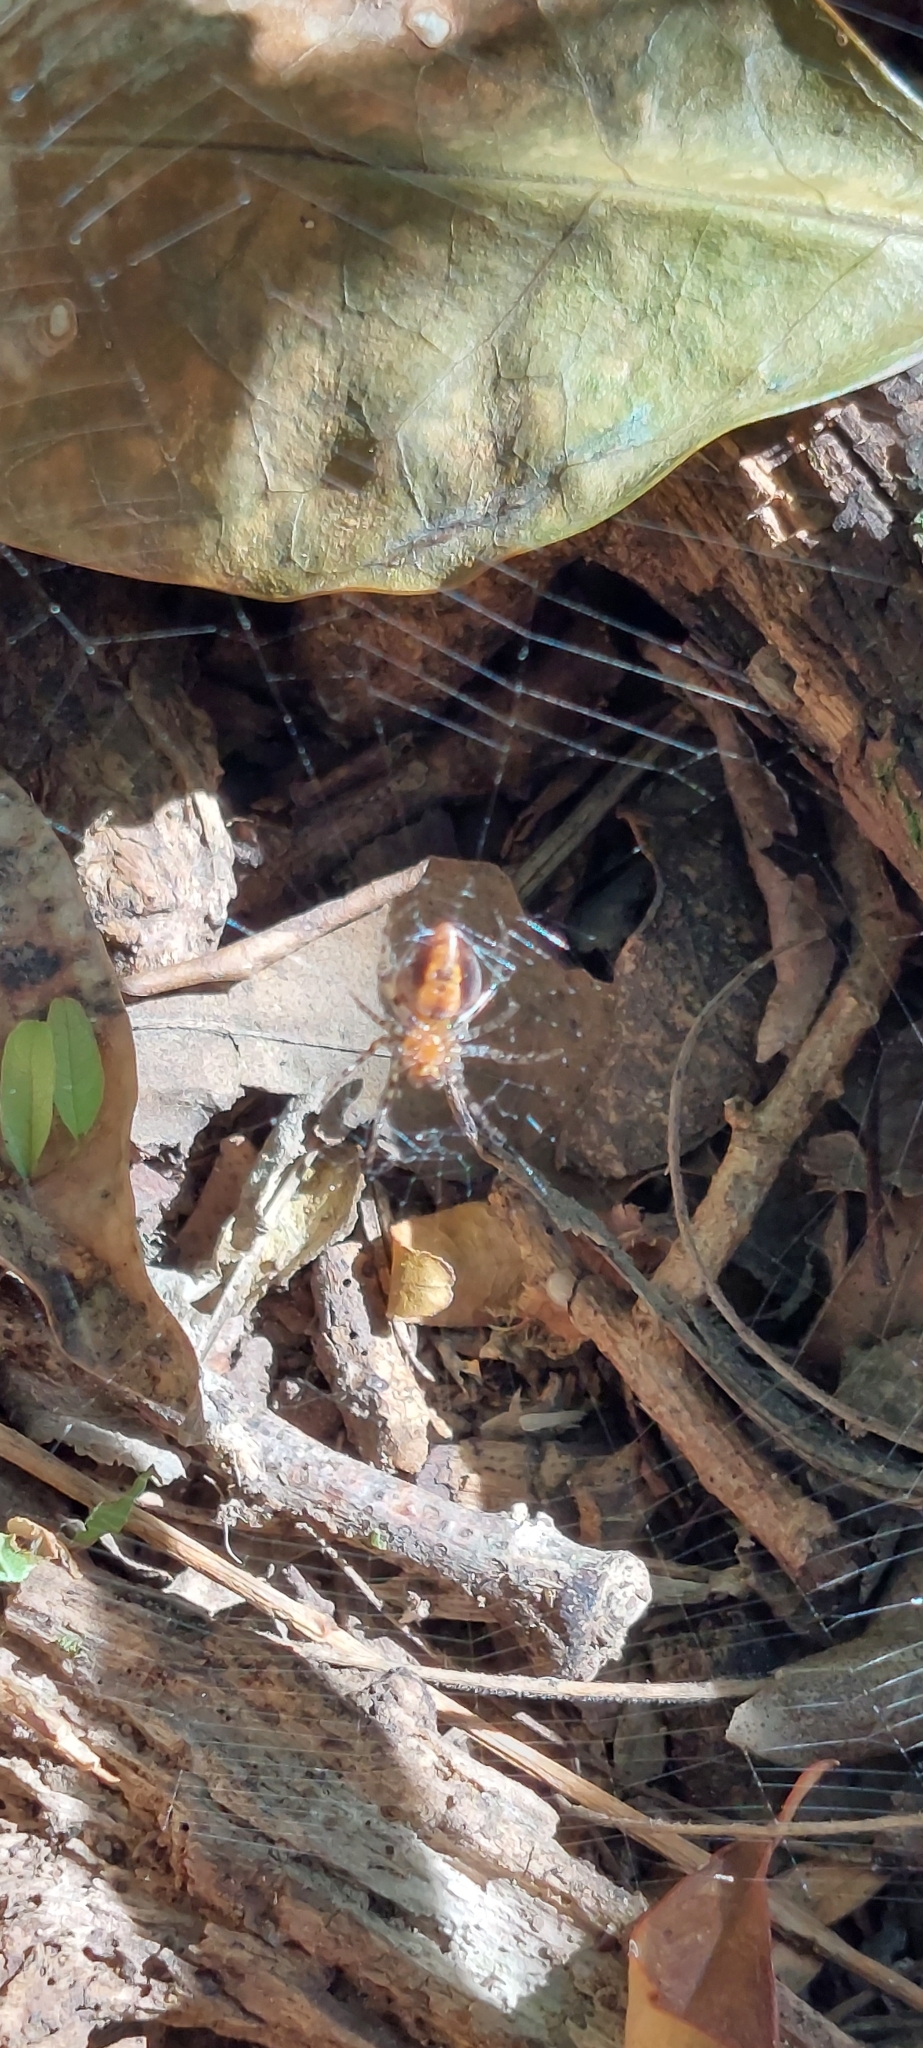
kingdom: Animalia
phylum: Arthropoda
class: Arachnida
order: Araneae
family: Araneidae
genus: Alpaida
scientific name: Alpaida gallardoi
